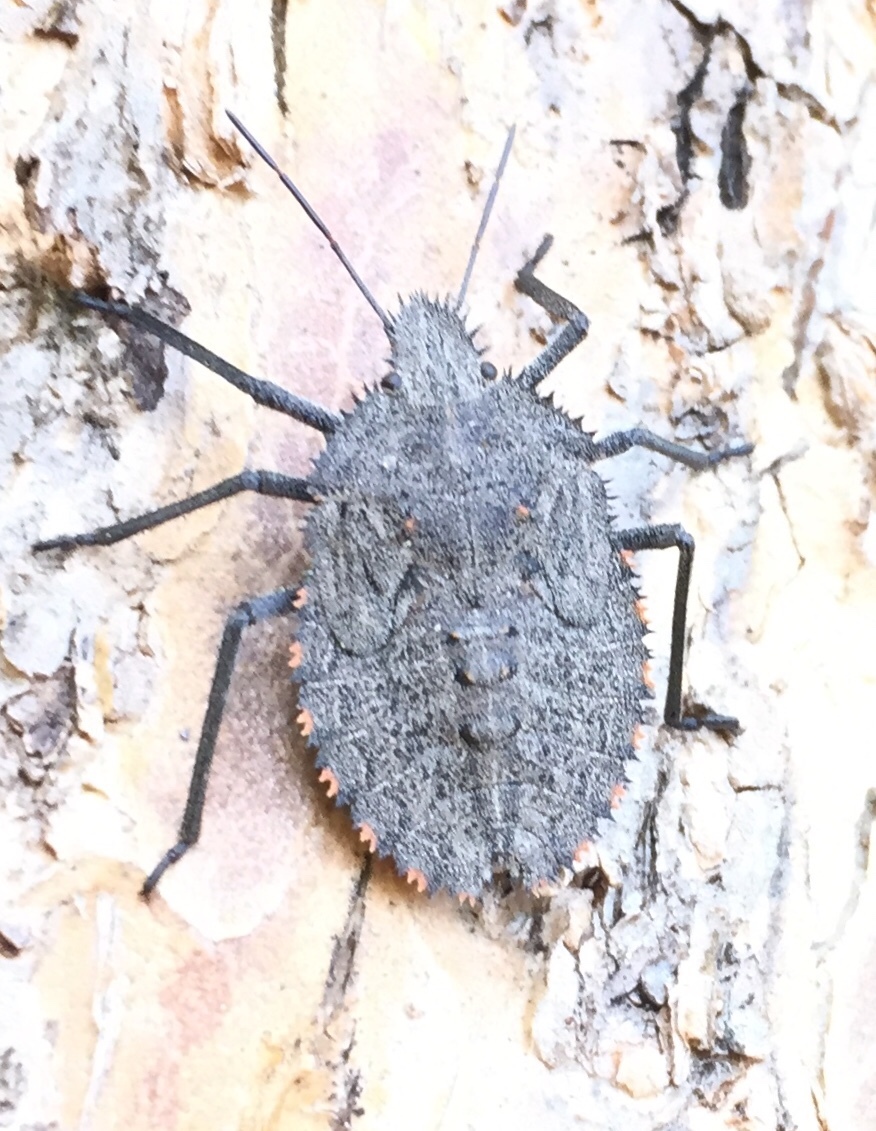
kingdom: Animalia
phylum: Arthropoda
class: Insecta
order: Hemiptera
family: Pentatomidae
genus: Mustha
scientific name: Mustha spinosula
